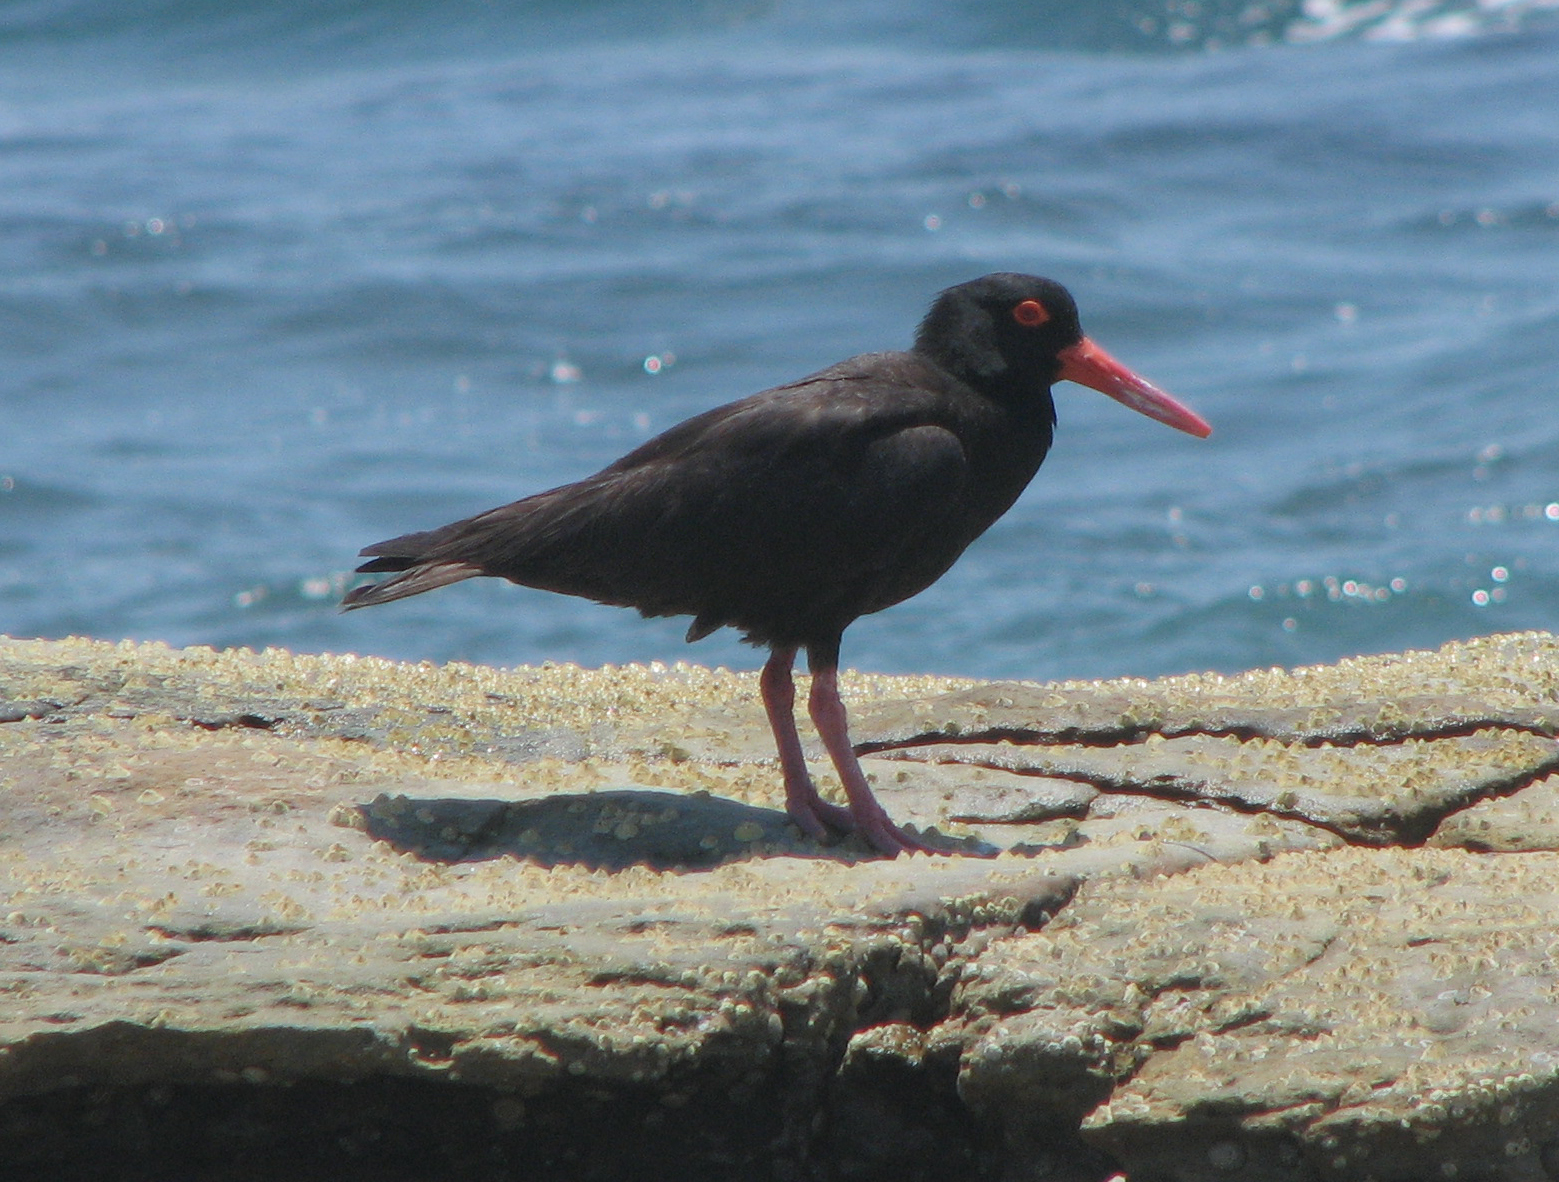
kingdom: Animalia
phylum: Chordata
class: Aves
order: Charadriiformes
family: Haematopodidae
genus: Haematopus
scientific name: Haematopus fuliginosus
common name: Sooty oystercatcher
